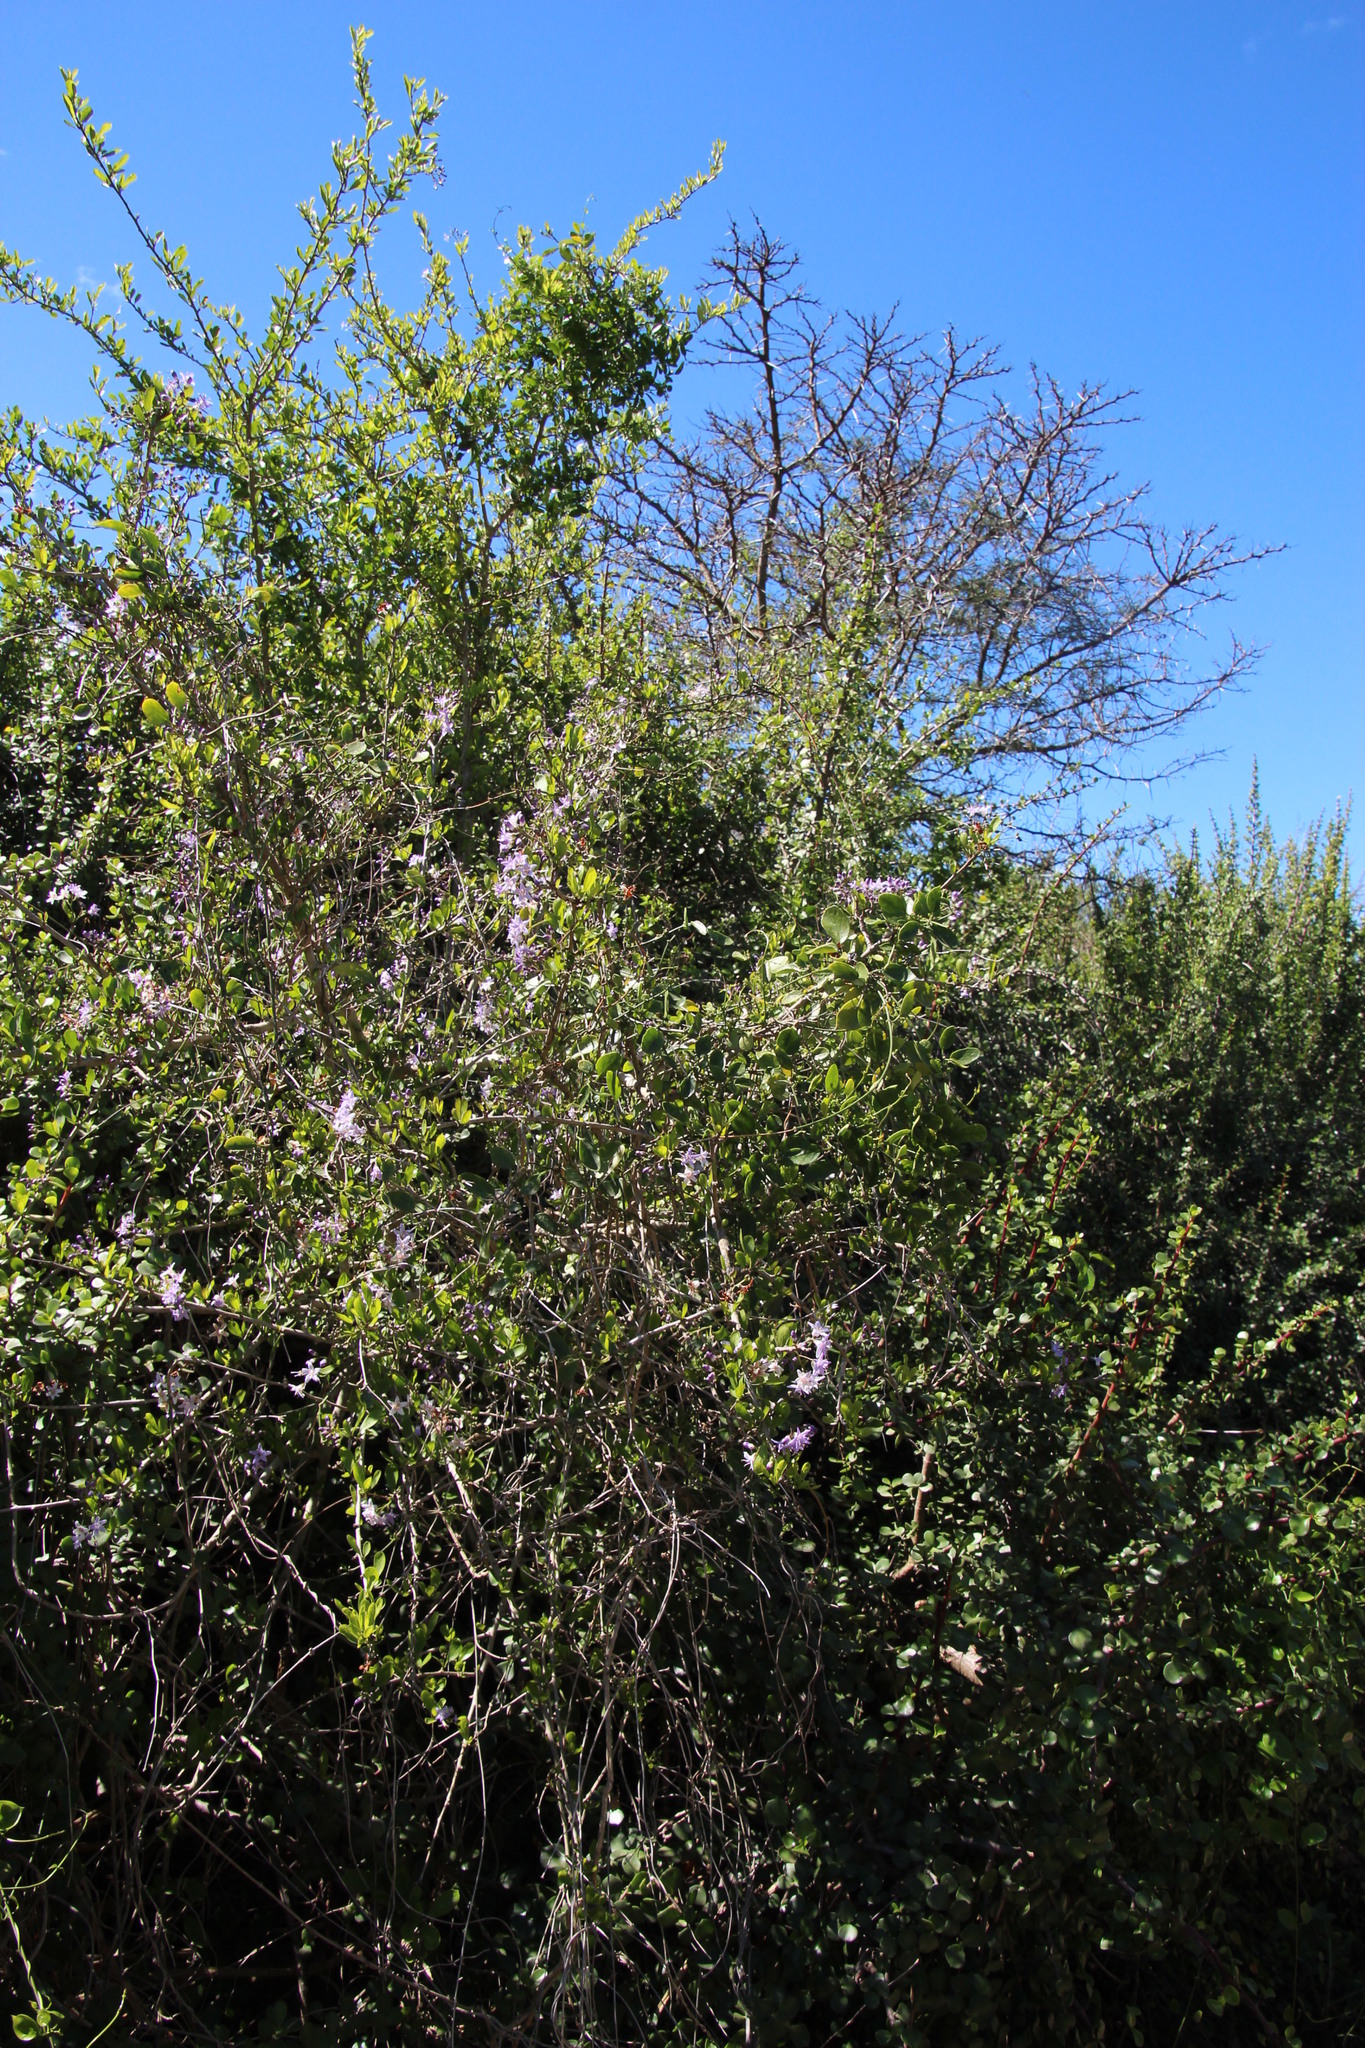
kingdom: Plantae
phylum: Tracheophyta
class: Magnoliopsida
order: Boraginales
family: Ehretiaceae
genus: Ehretia
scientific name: Ehretia rigida
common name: Cape lilac
